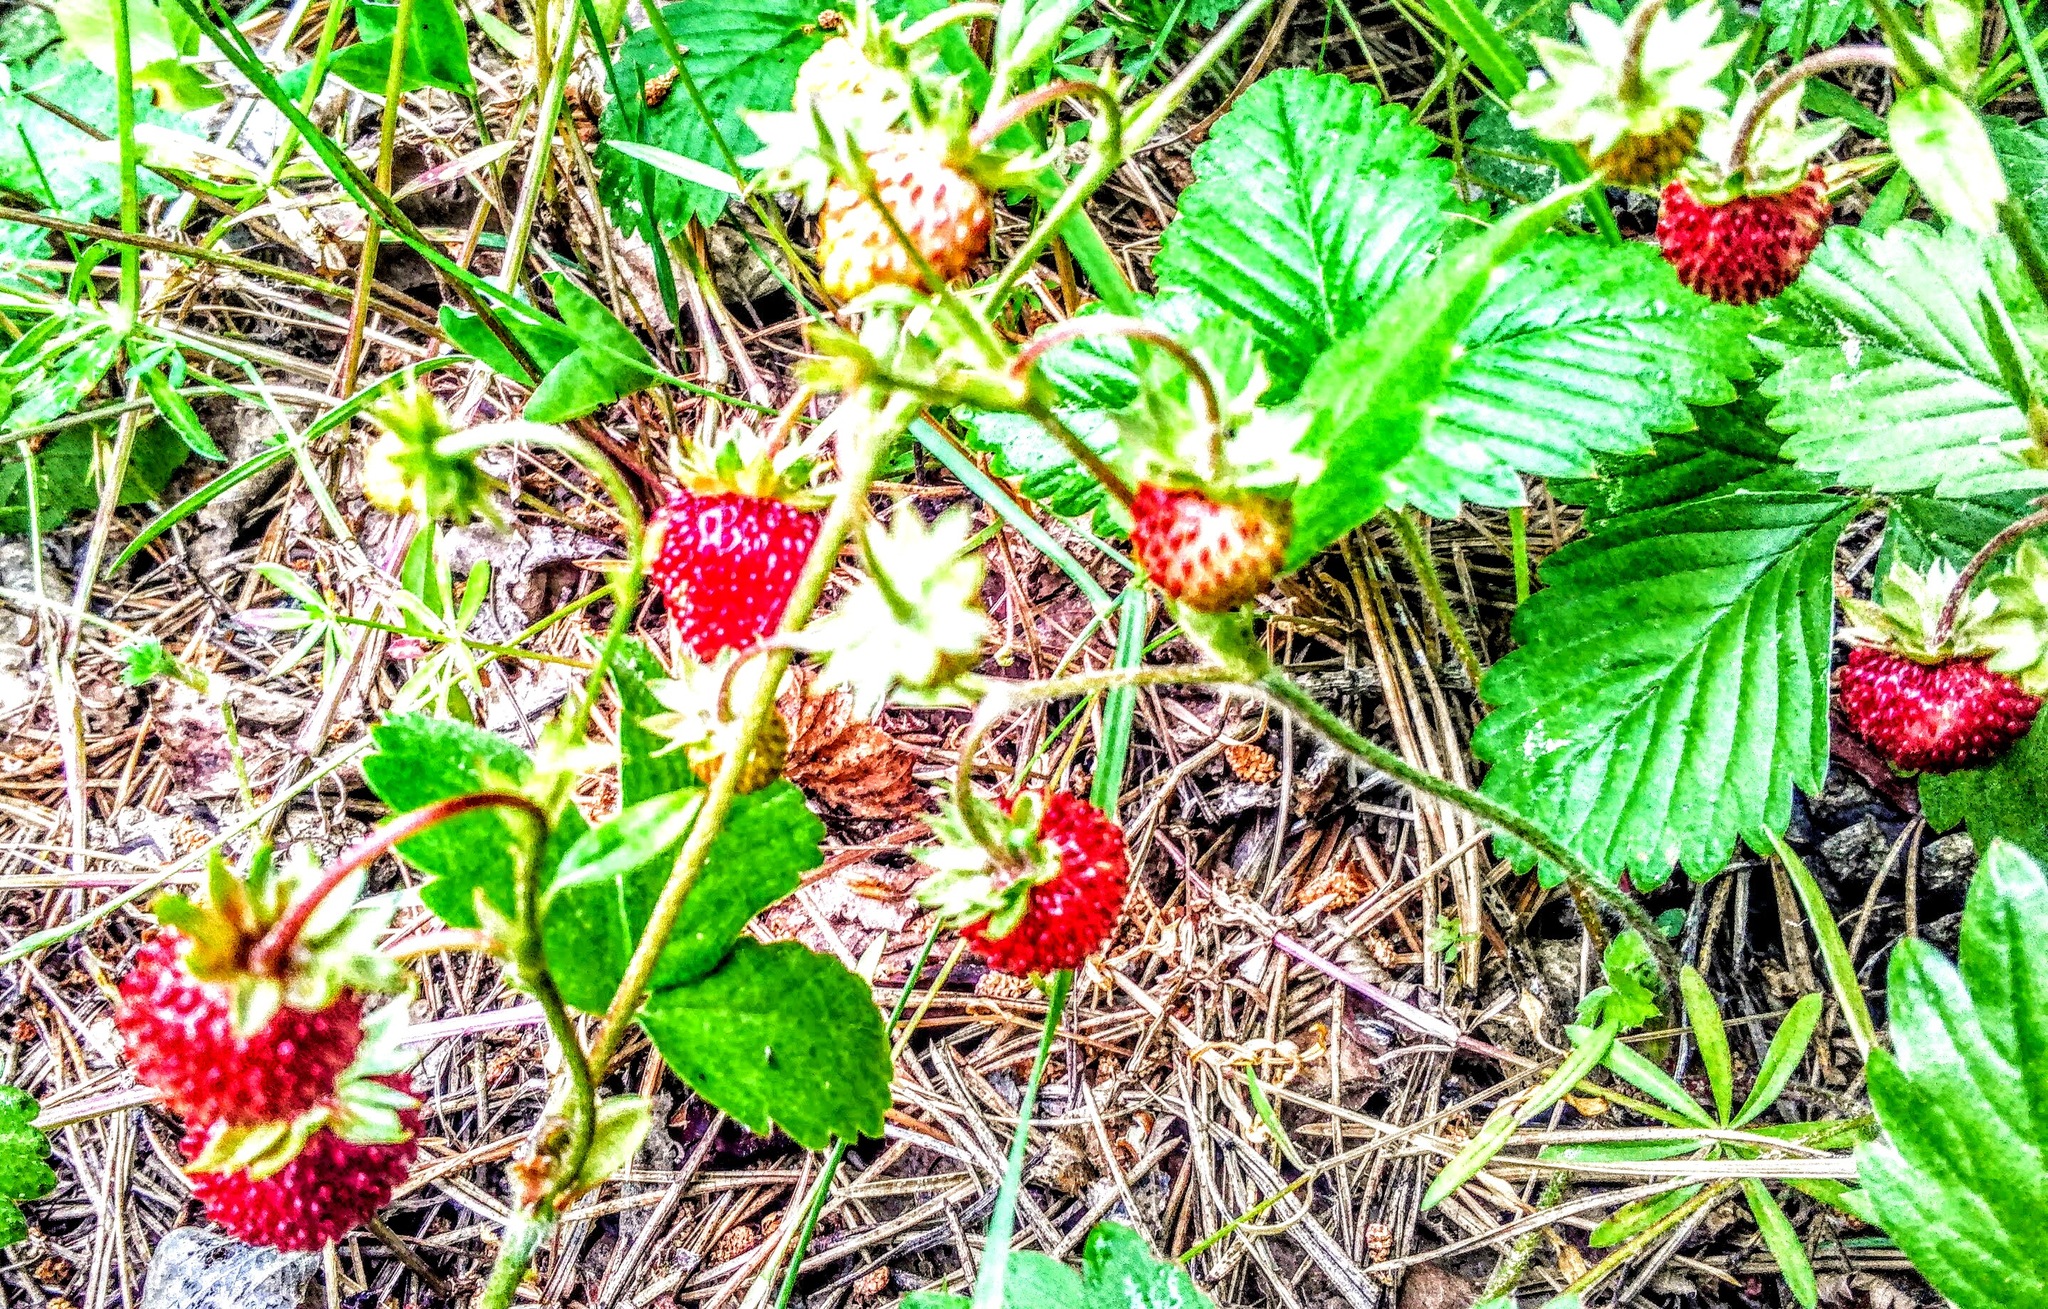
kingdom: Plantae
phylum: Tracheophyta
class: Magnoliopsida
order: Rosales
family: Rosaceae
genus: Fragaria
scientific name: Fragaria vesca
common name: Wild strawberry
